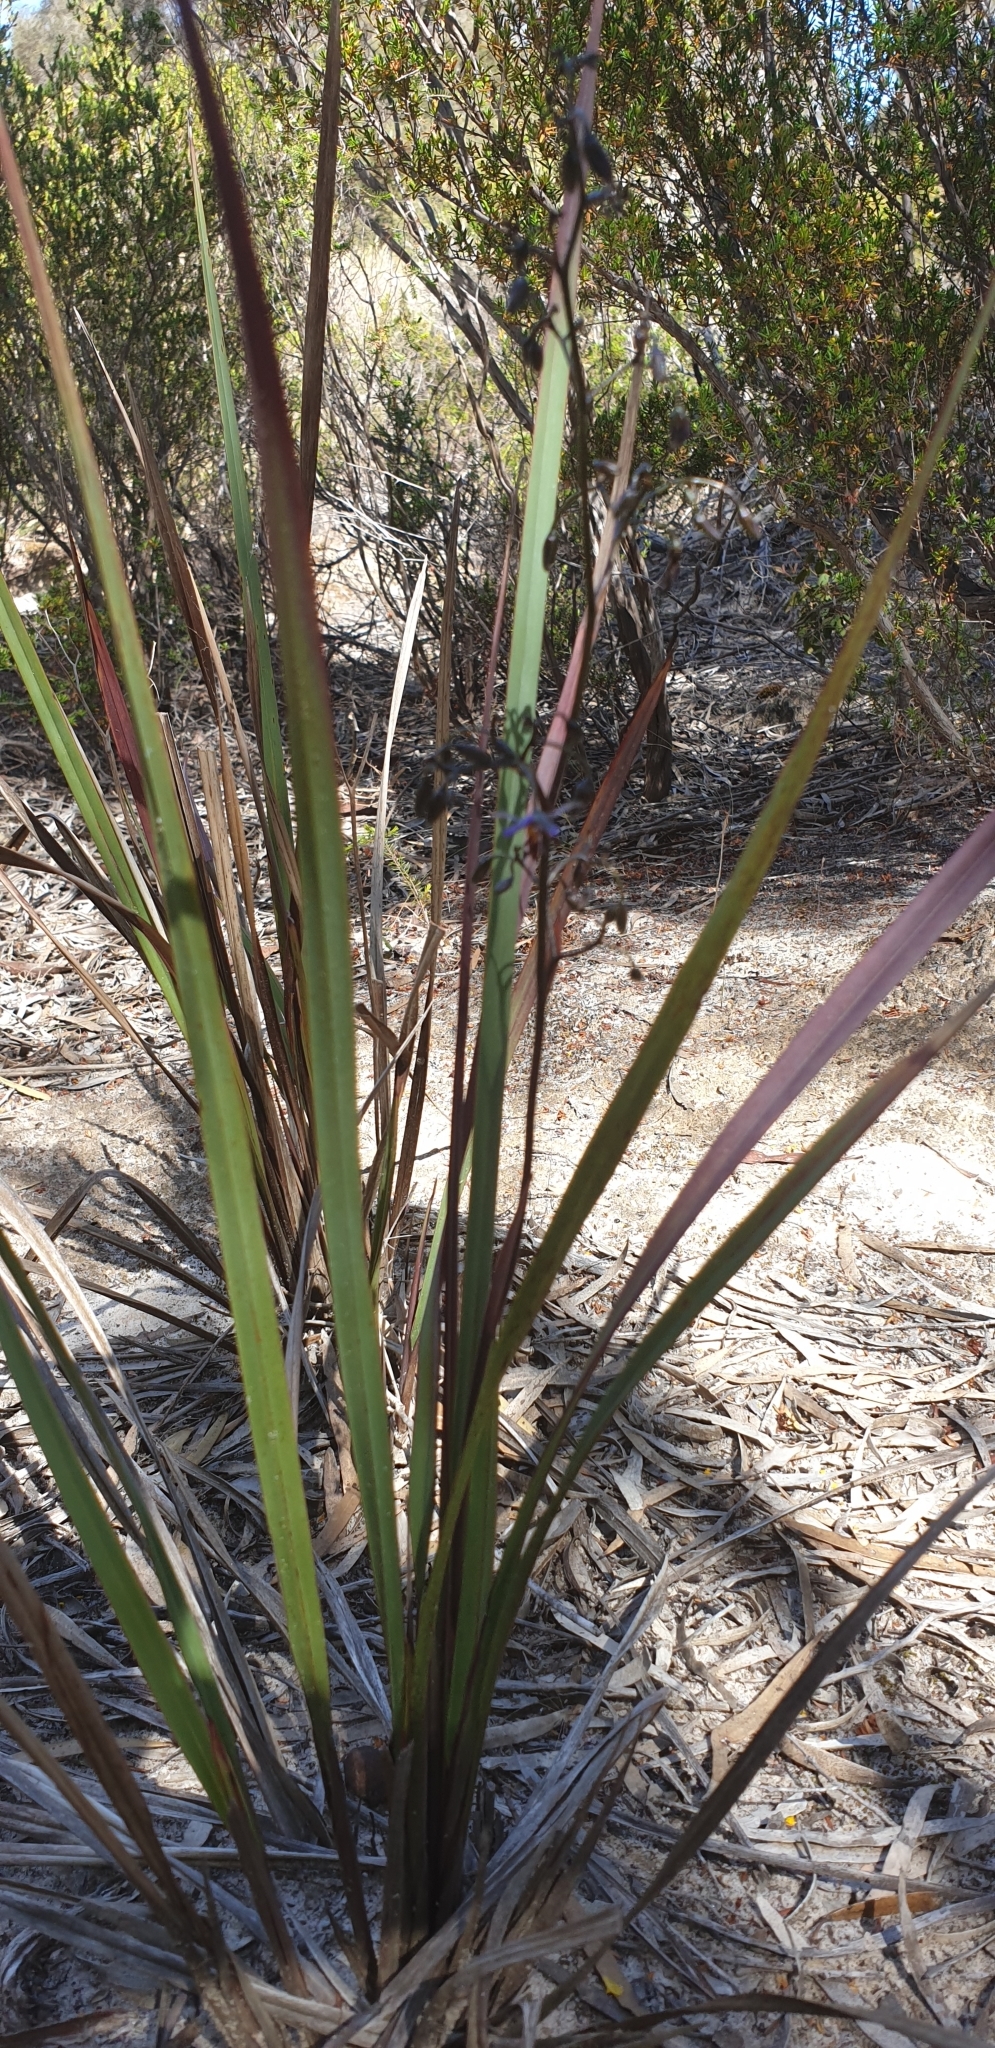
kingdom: Plantae
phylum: Tracheophyta
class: Liliopsida
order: Asparagales
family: Asphodelaceae
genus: Dianella
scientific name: Dianella revoluta
